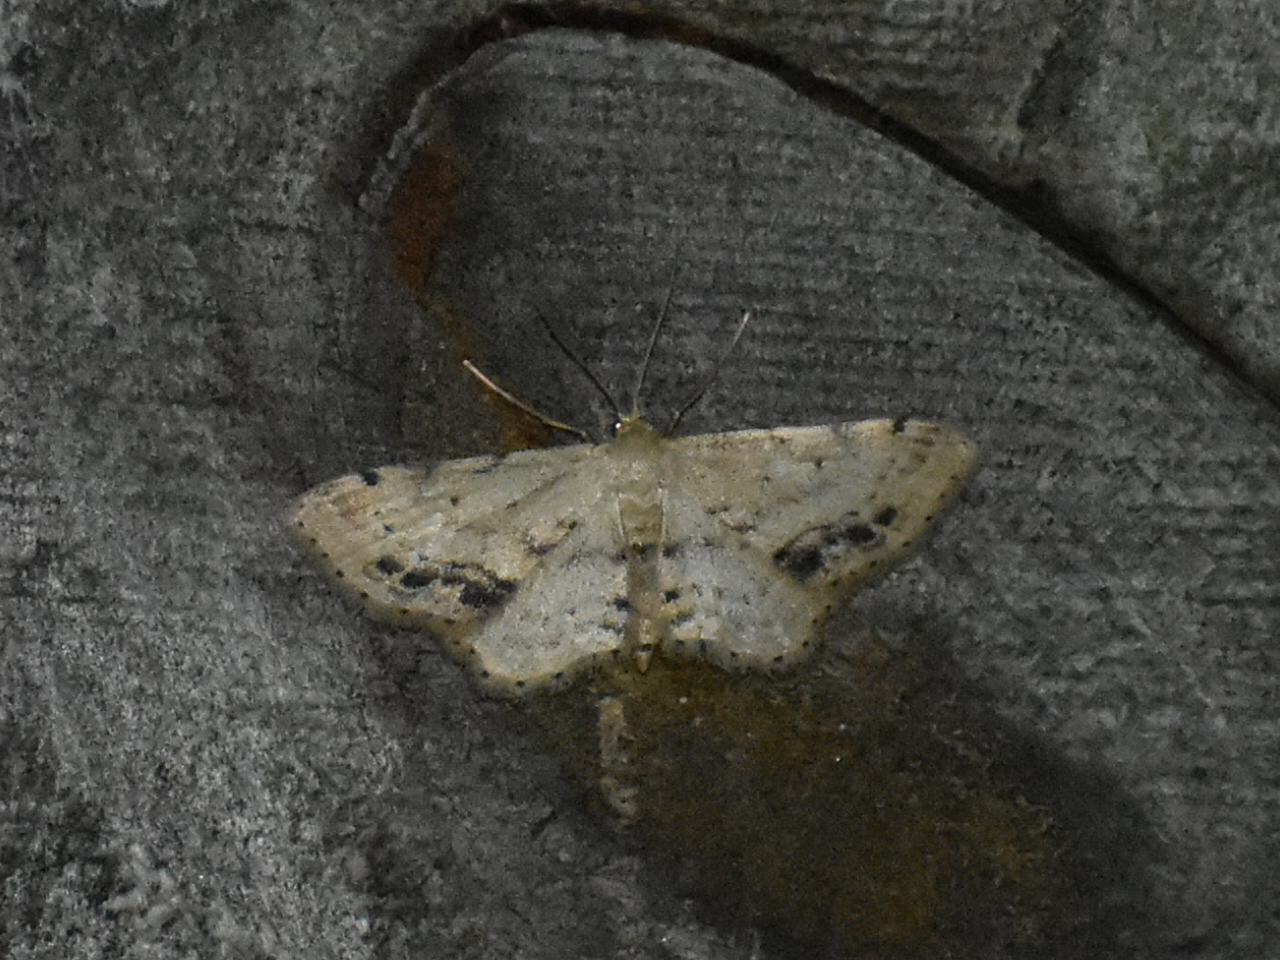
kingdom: Animalia
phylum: Arthropoda
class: Insecta
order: Lepidoptera
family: Geometridae
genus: Idaea
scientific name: Idaea dimidiata
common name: Single-dotted wave
